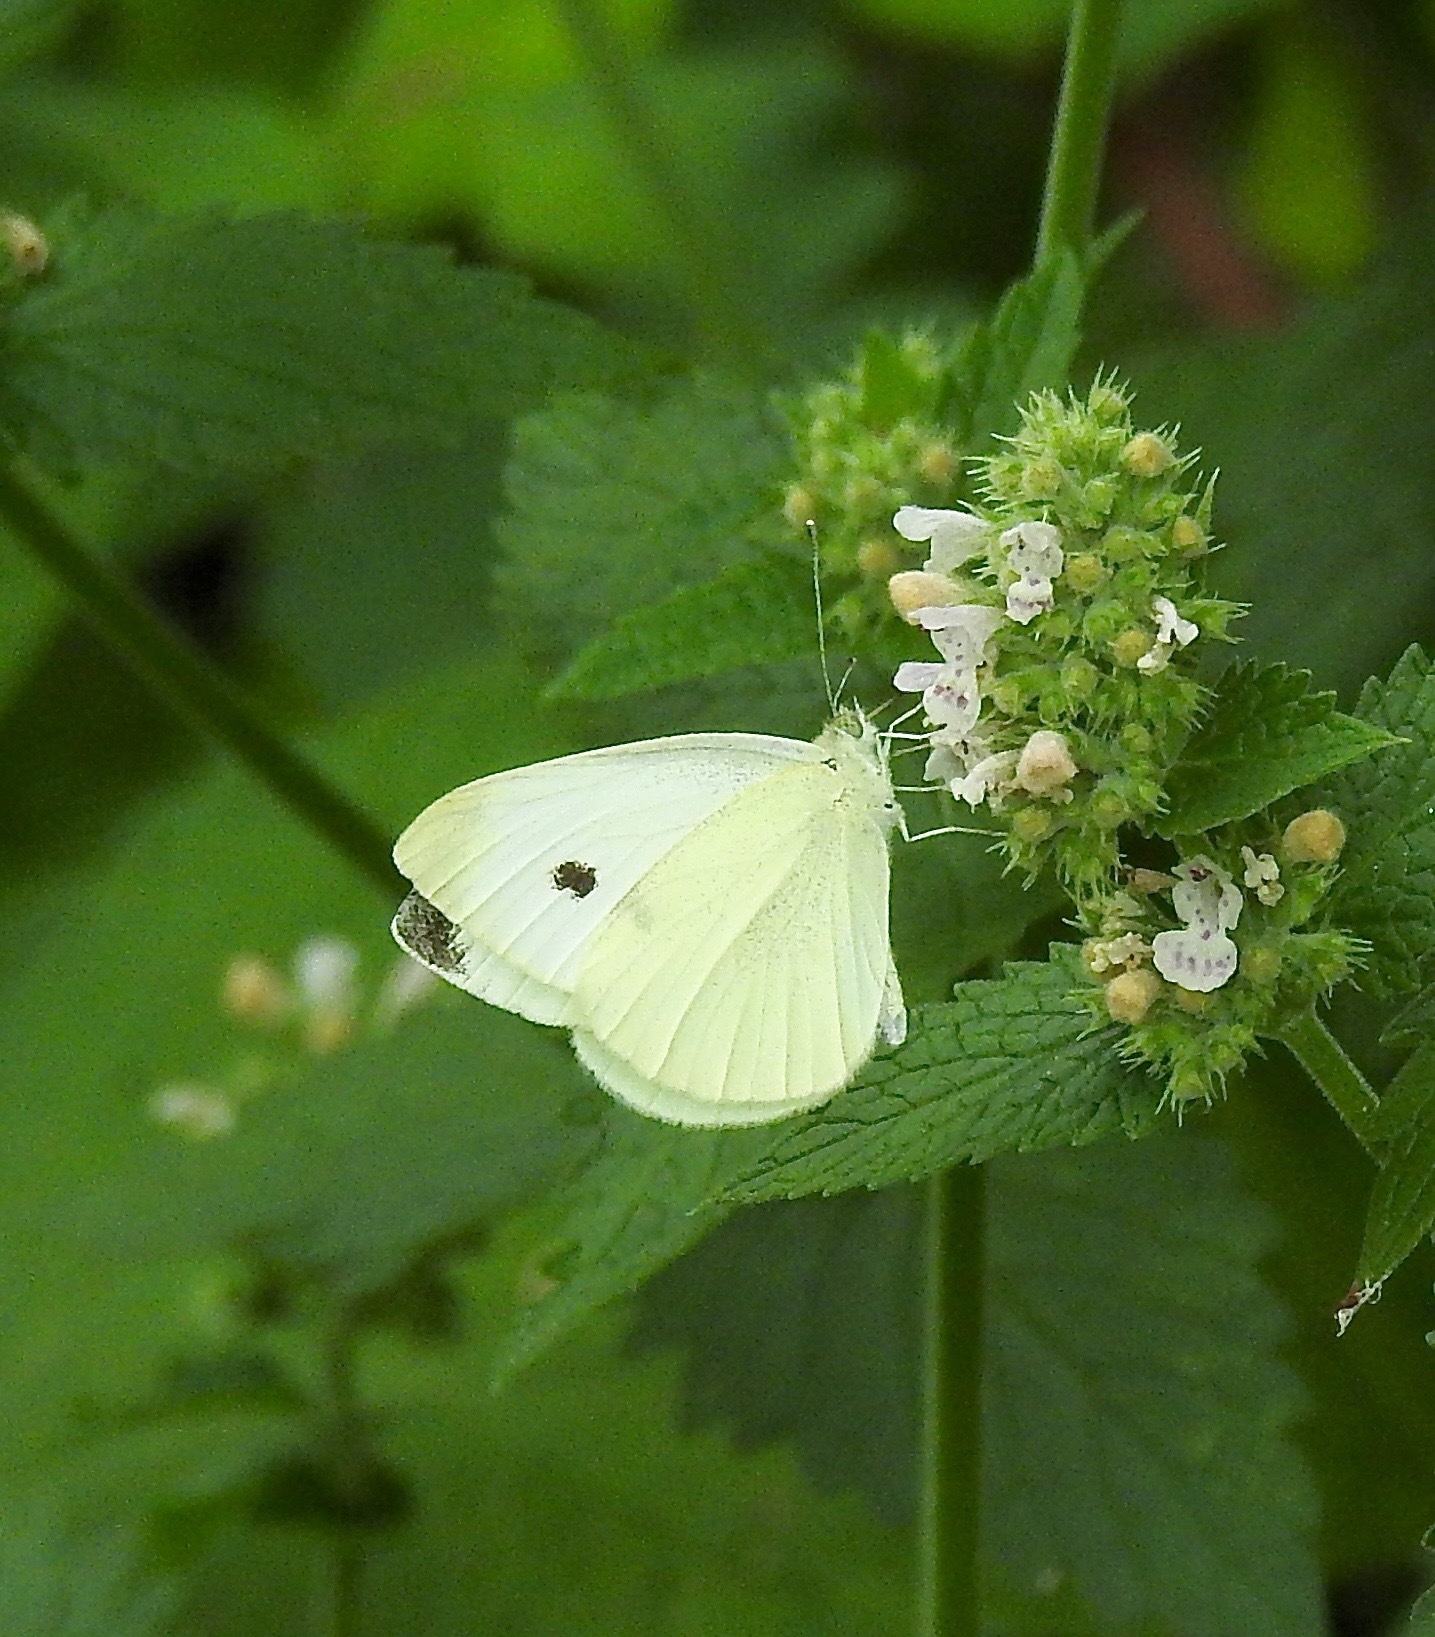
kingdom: Animalia
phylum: Arthropoda
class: Insecta
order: Lepidoptera
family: Pieridae
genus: Pieris
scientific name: Pieris rapae
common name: Small white
